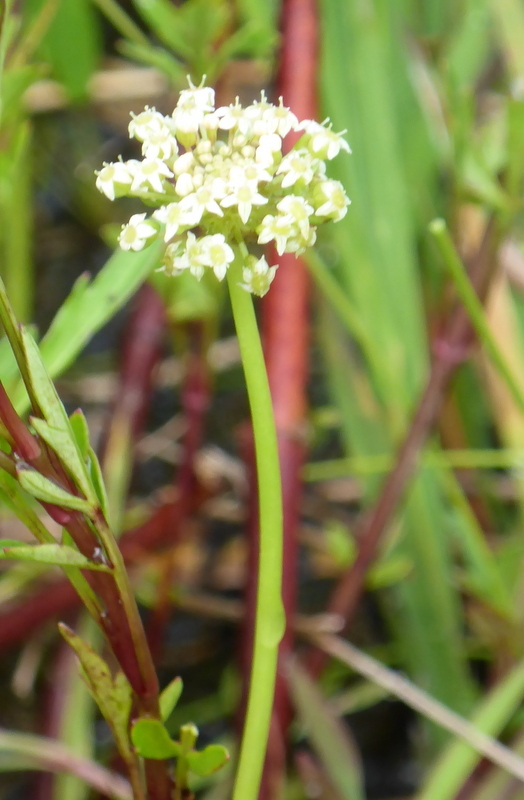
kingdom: Plantae
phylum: Tracheophyta
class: Magnoliopsida
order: Apiales
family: Araliaceae
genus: Hydrocotyle
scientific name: Hydrocotyle umbellata
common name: Water pennywort
